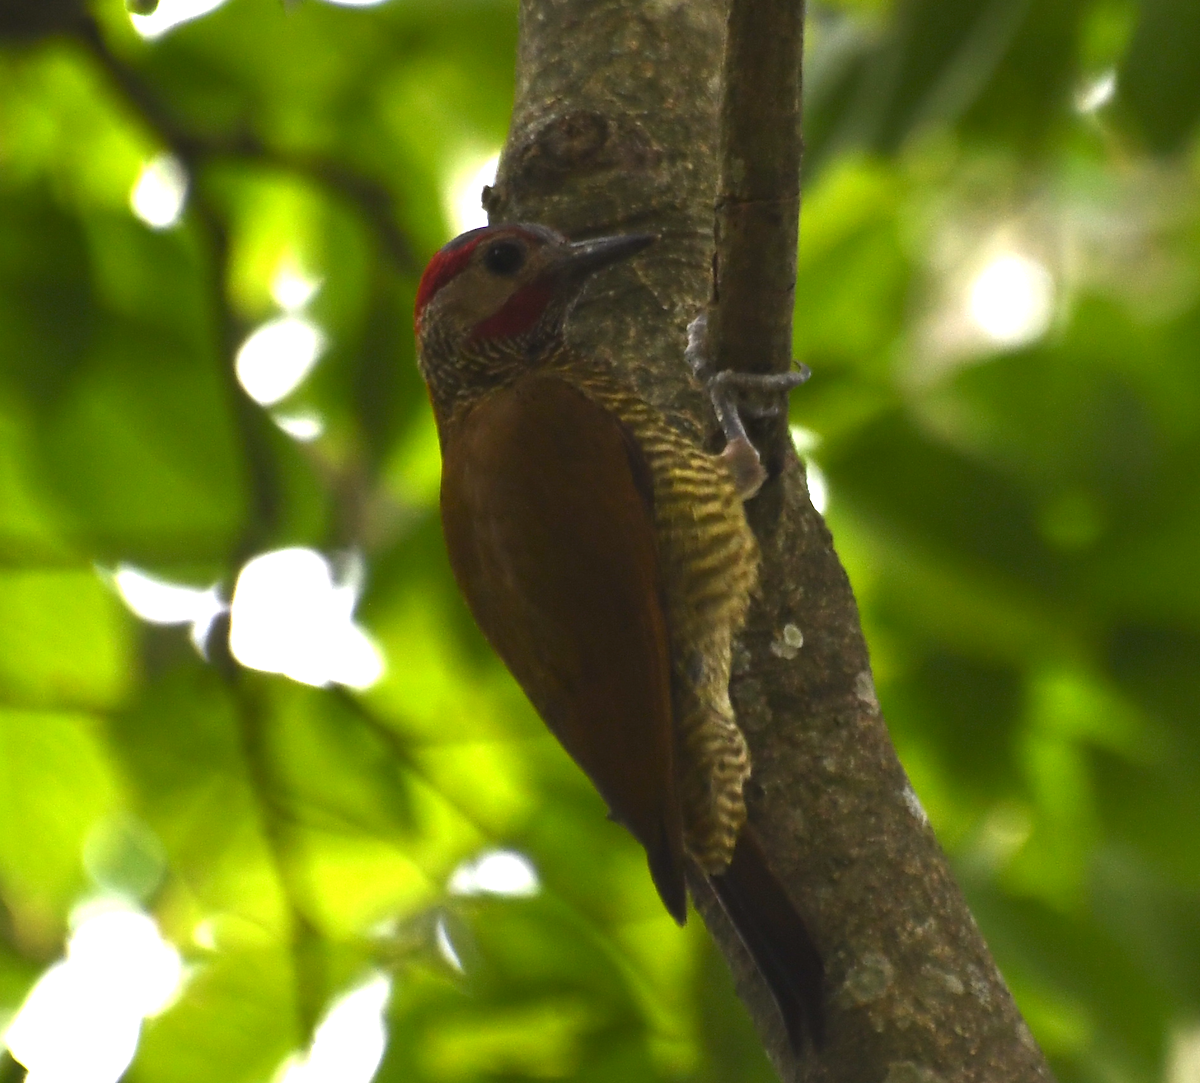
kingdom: Animalia
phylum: Chordata
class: Aves
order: Piciformes
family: Picidae
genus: Colaptes
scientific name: Colaptes rubiginosus
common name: Golden-olive woodpecker
